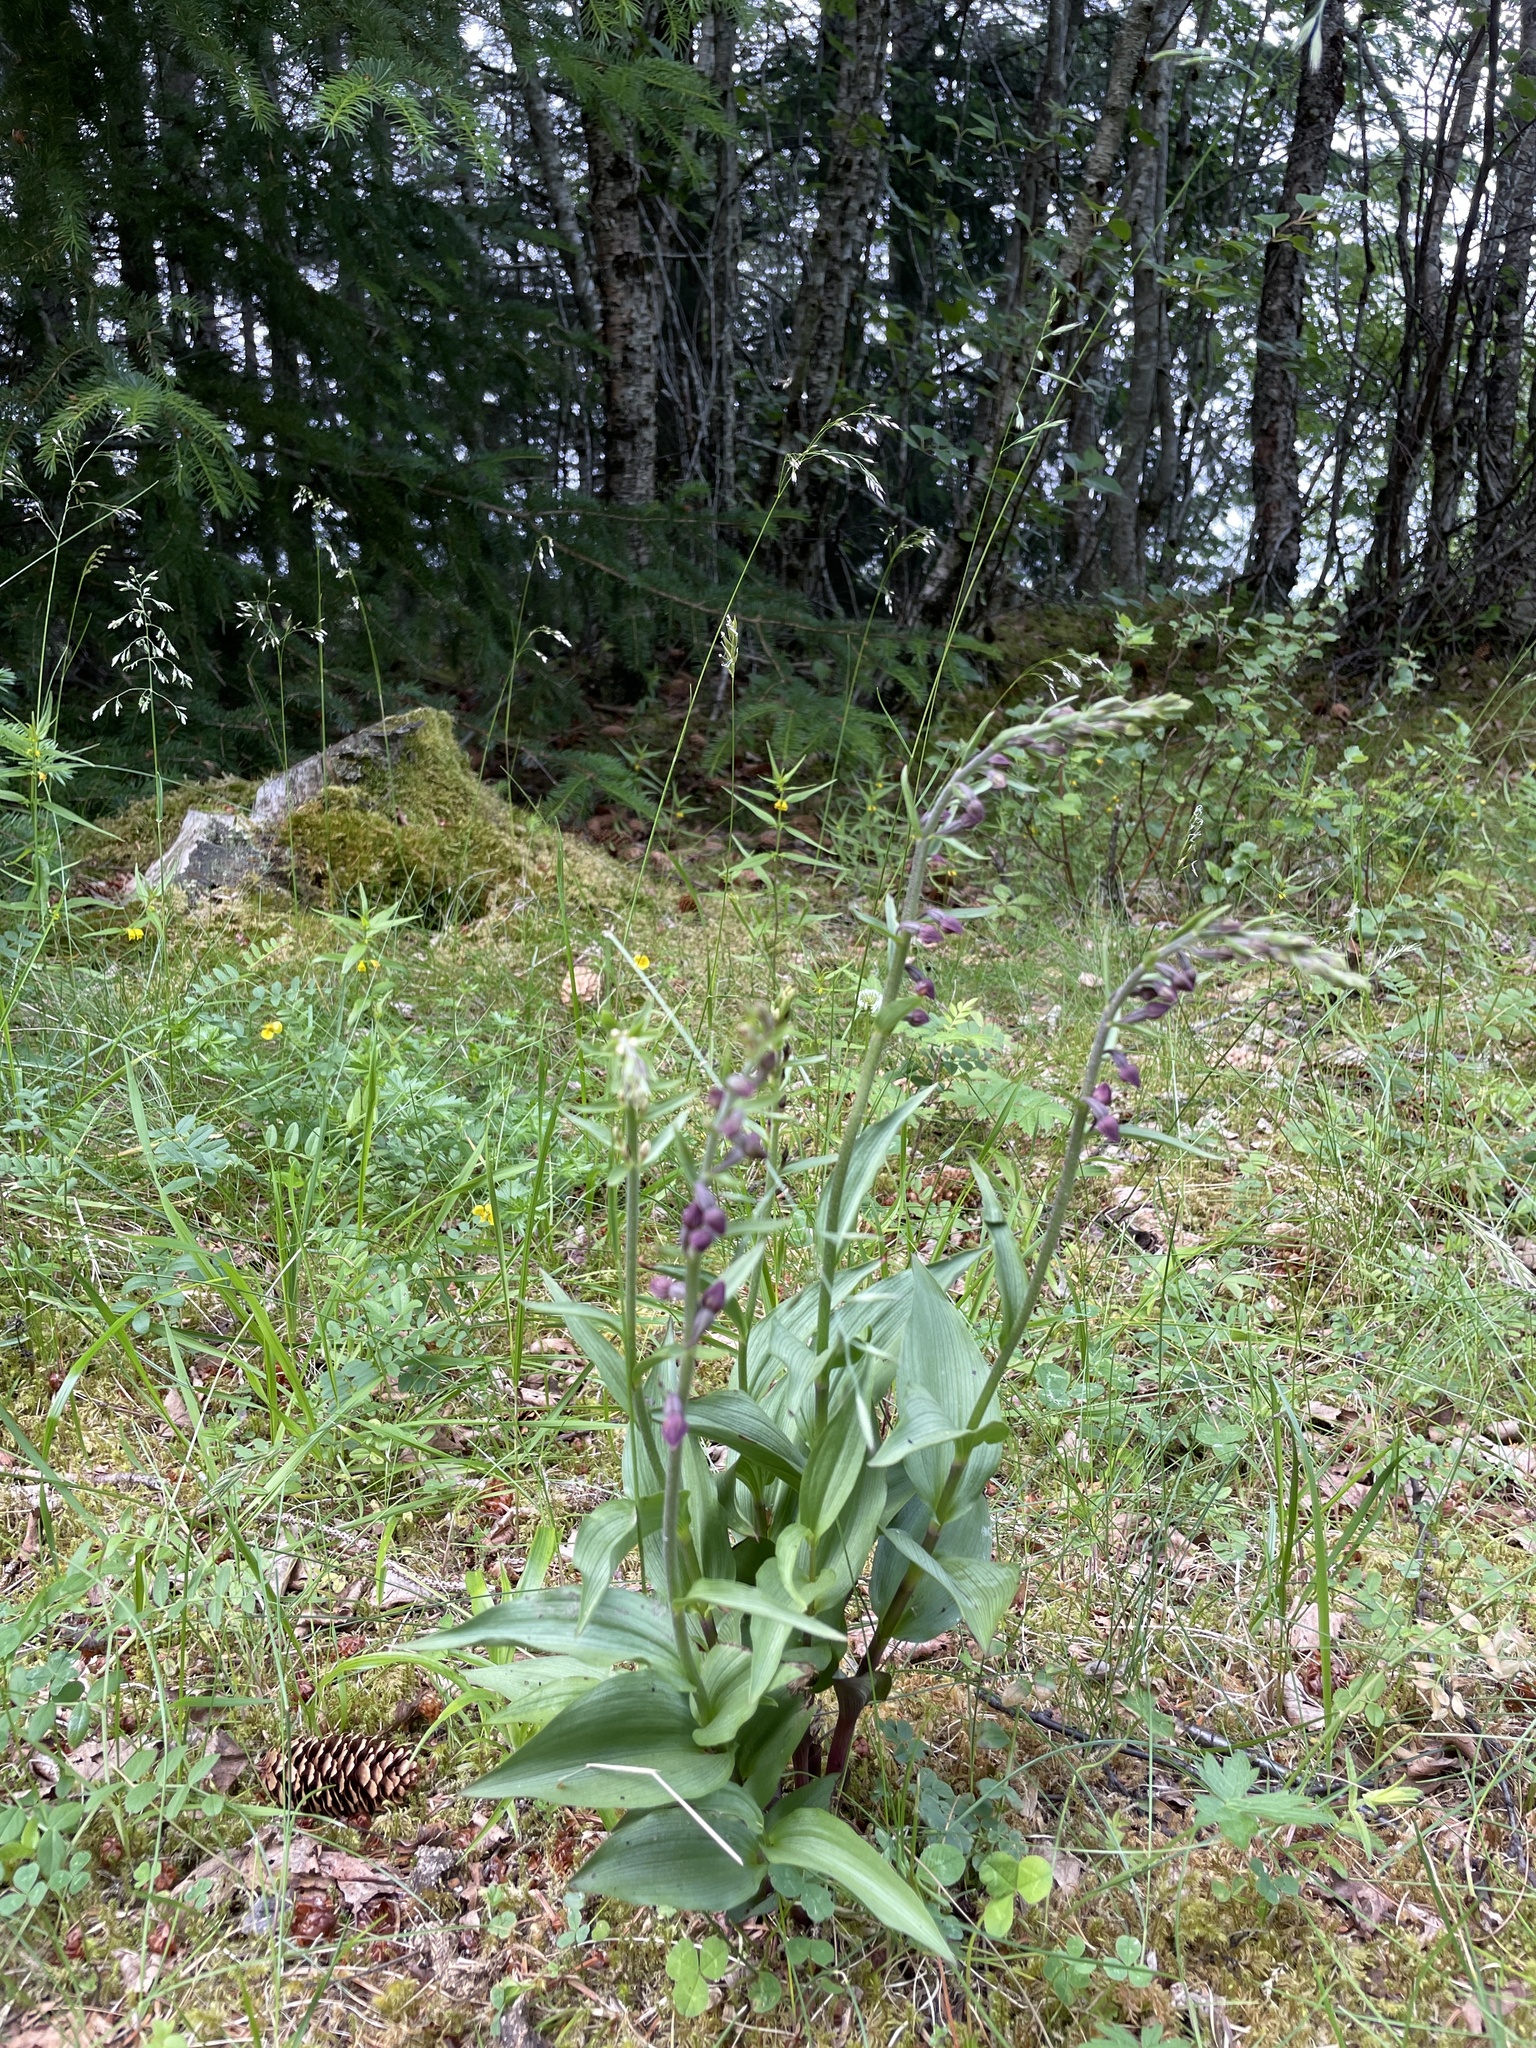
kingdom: Plantae
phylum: Tracheophyta
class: Liliopsida
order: Asparagales
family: Orchidaceae
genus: Epipactis
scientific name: Epipactis atrorubens
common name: Dark-red helleborine
